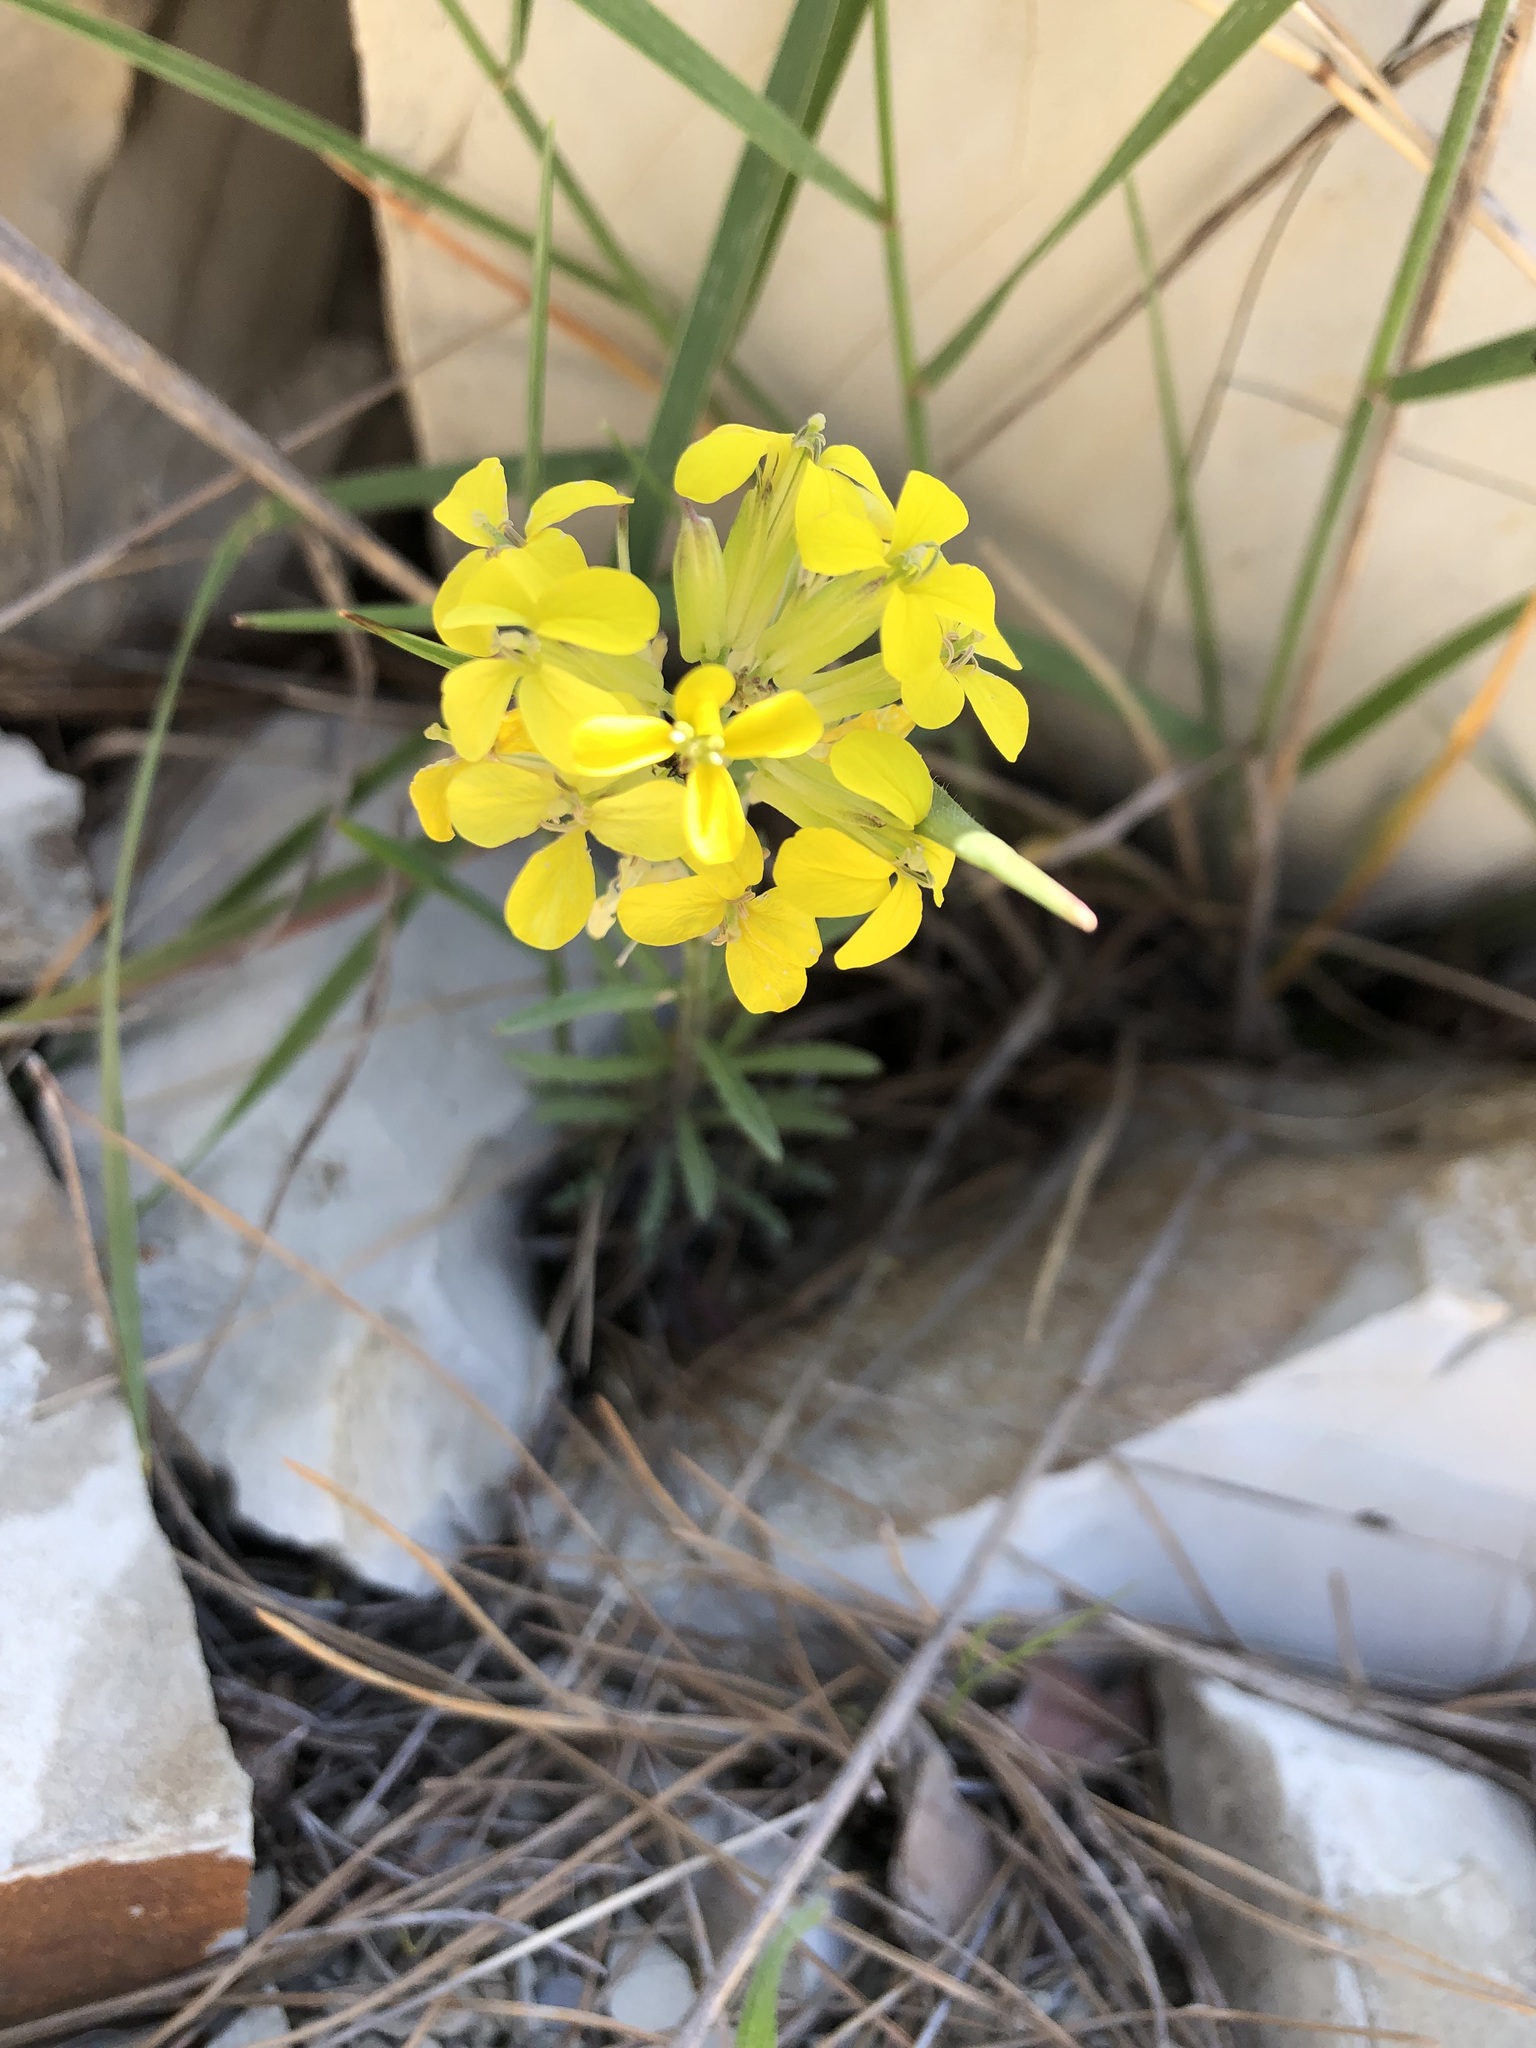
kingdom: Plantae
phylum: Tracheophyta
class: Magnoliopsida
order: Brassicales
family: Brassicaceae
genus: Erysimum
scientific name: Erysimum cuspidatum
